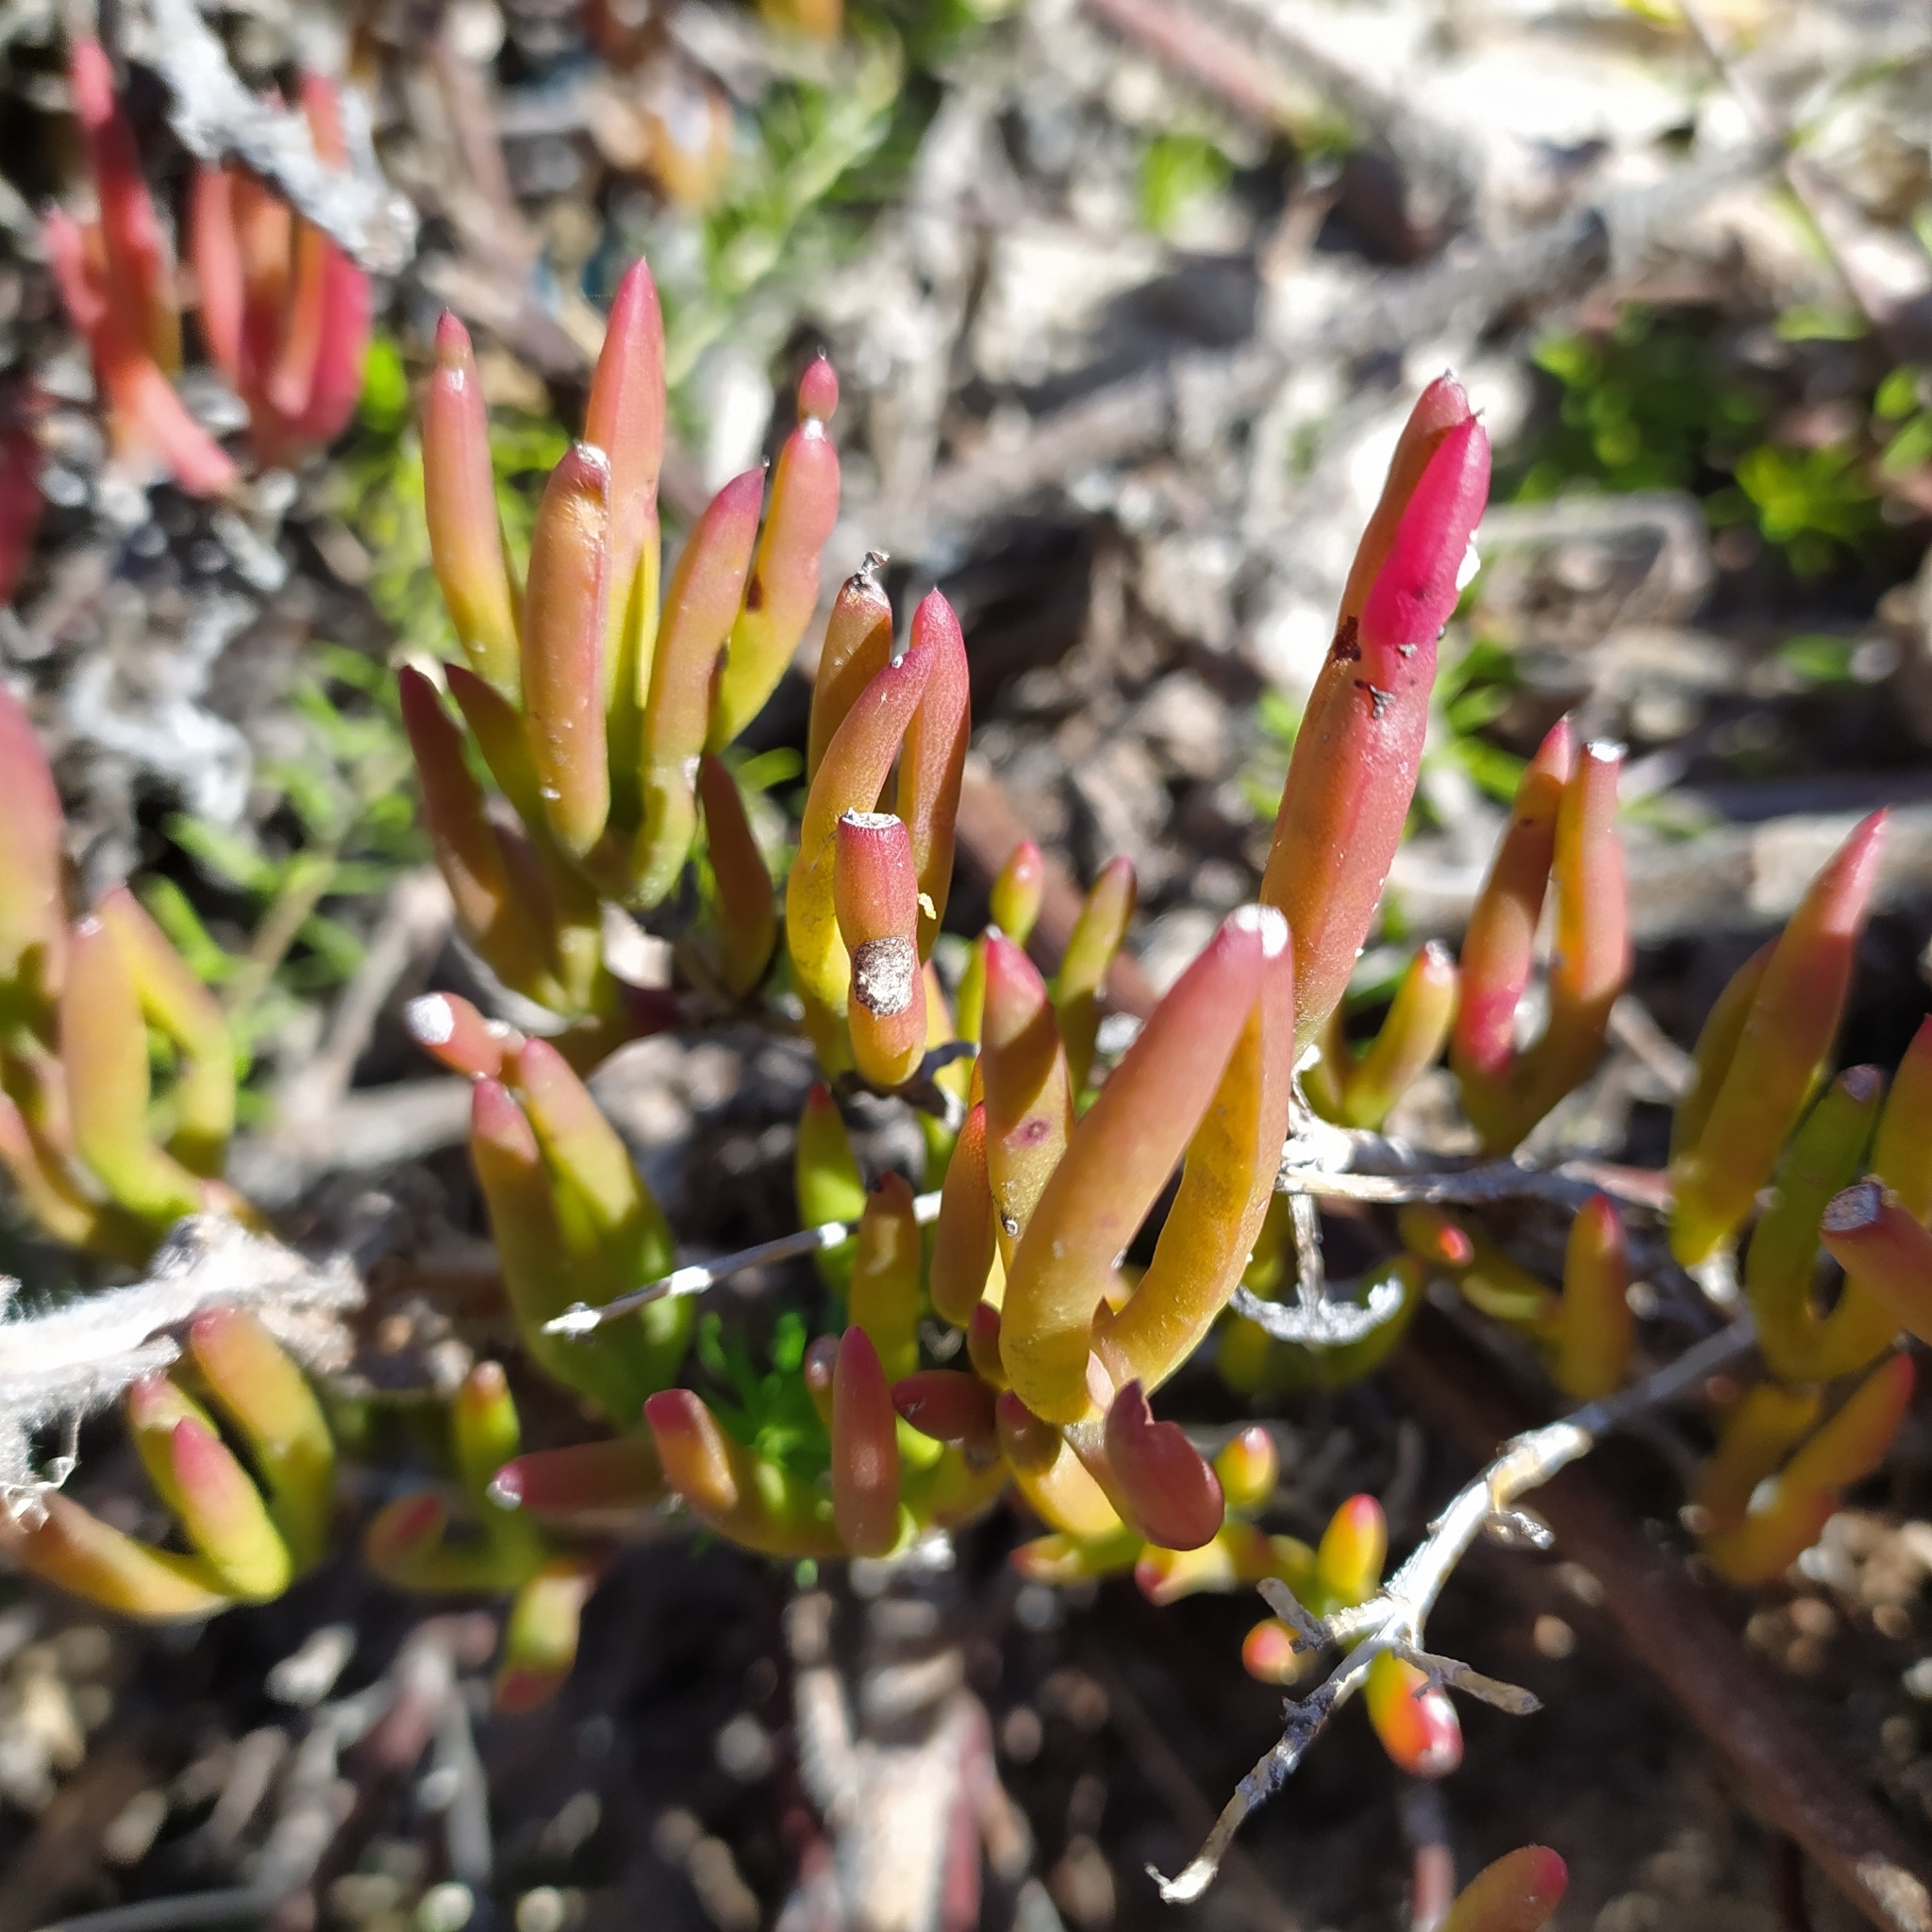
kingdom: Plantae
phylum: Tracheophyta
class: Magnoliopsida
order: Caryophyllales
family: Aizoaceae
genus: Ruschia
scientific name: Ruschia macowanii
